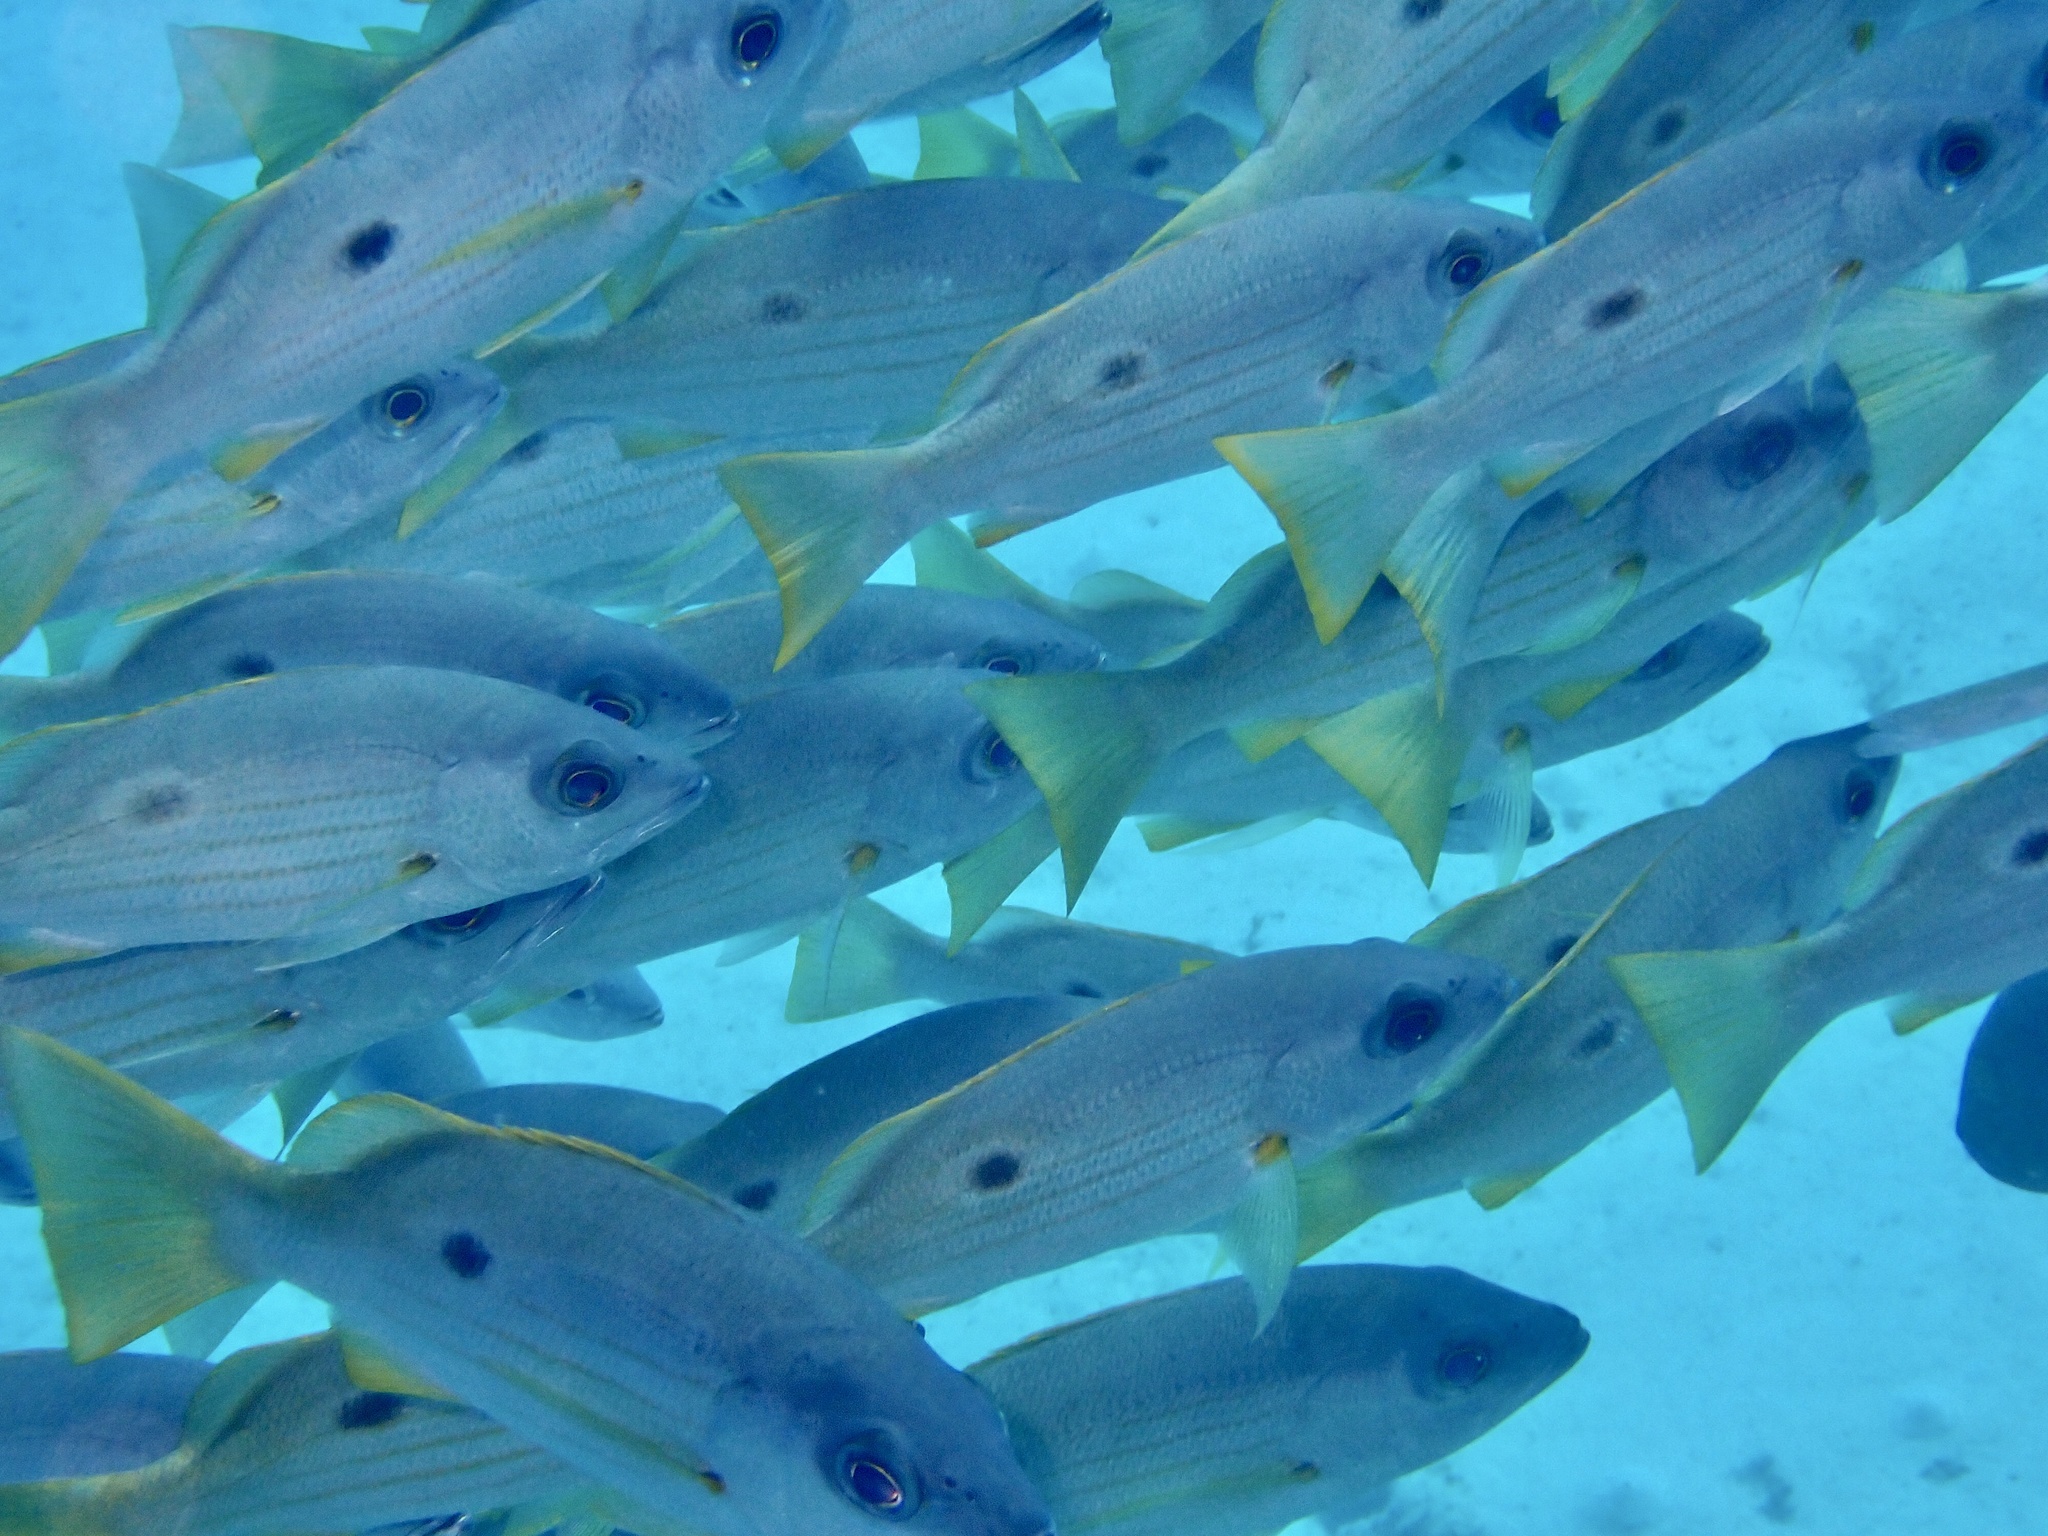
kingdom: Animalia
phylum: Chordata
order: Perciformes
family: Lutjanidae
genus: Lutjanus
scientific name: Lutjanus ehrenbergii
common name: Blackspot snapper
